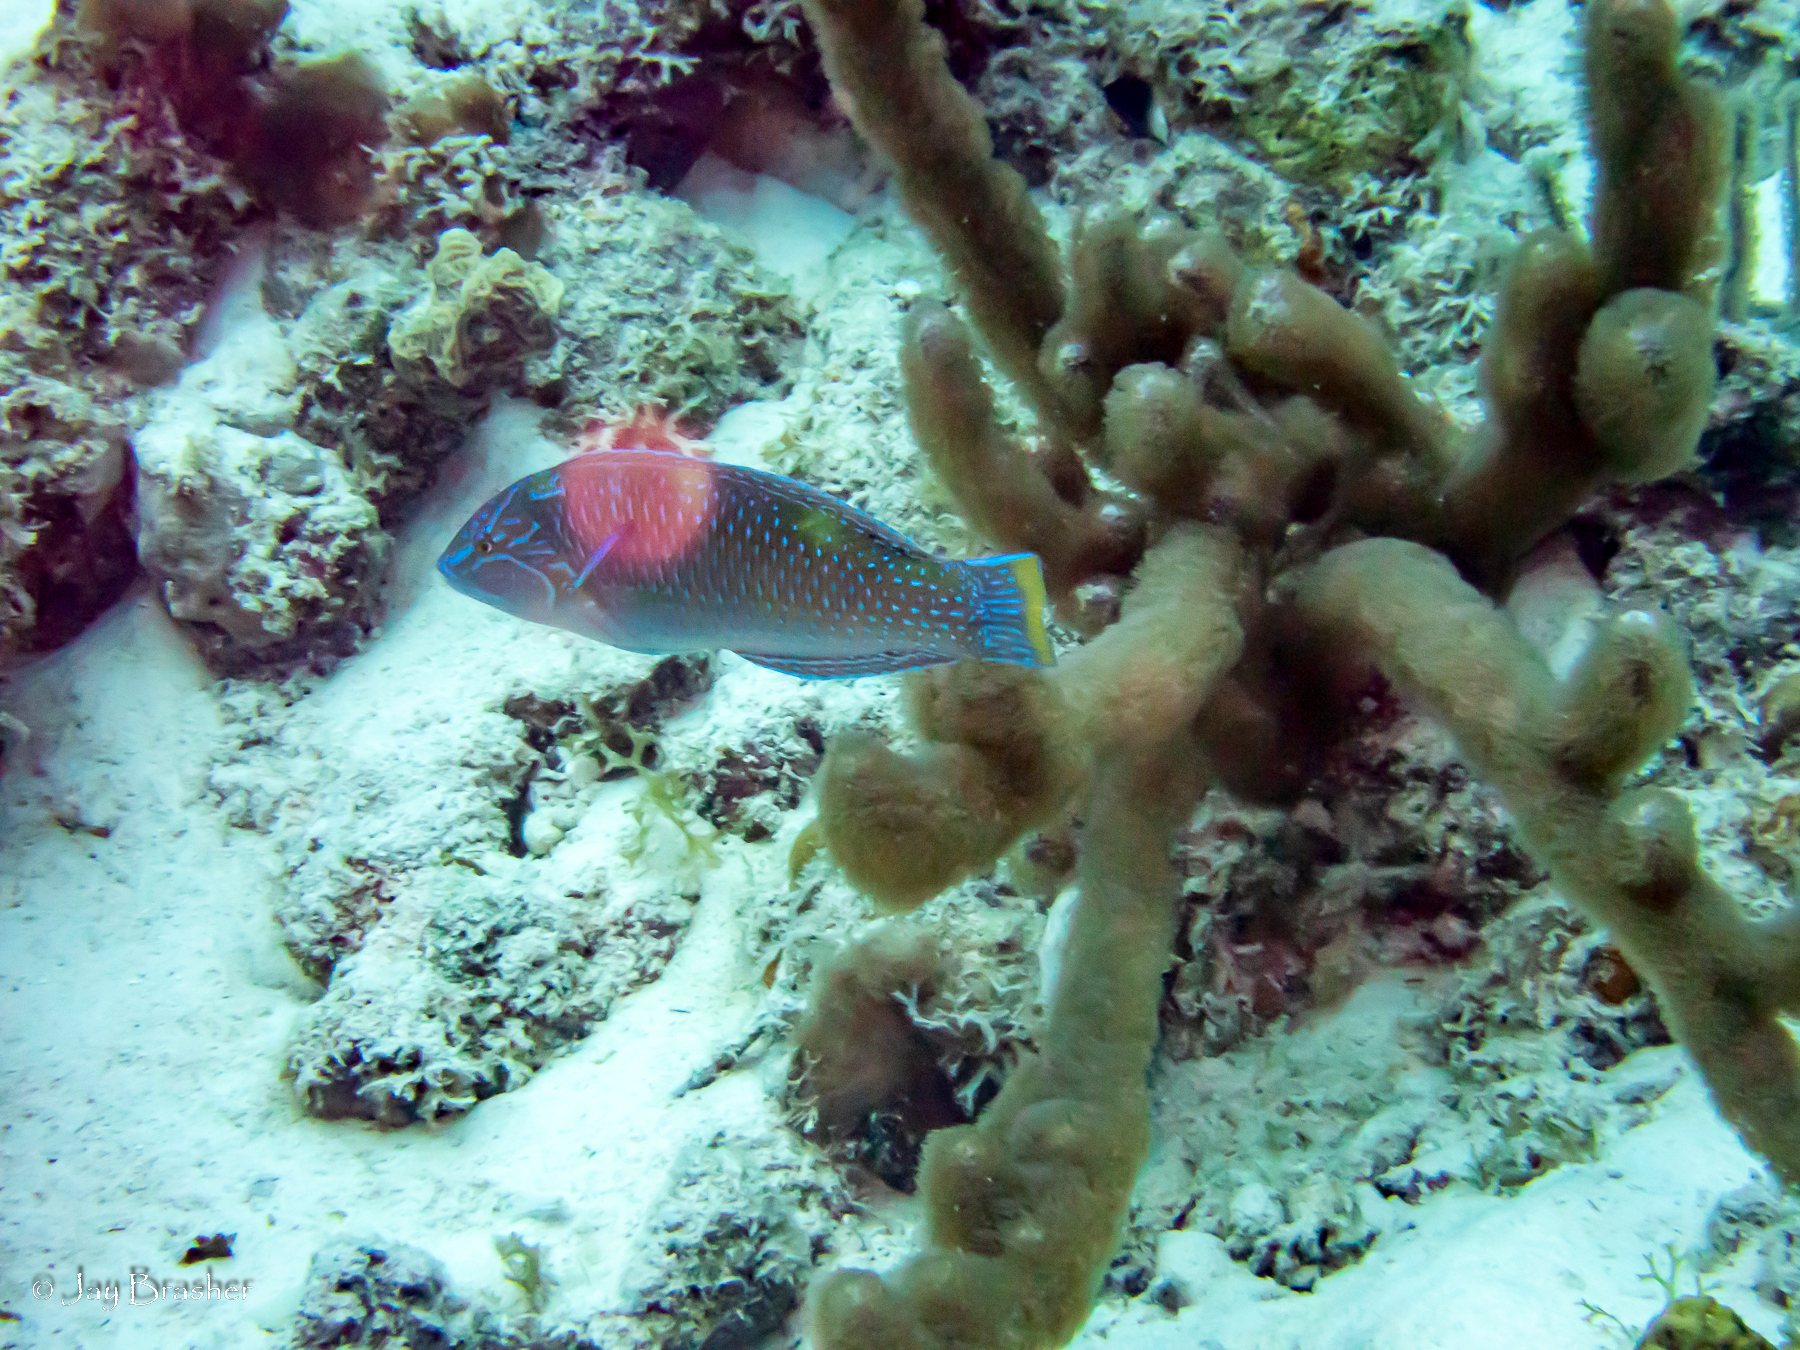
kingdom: Animalia
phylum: Chordata
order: Perciformes
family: Labridae
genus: Halichoeres
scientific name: Halichoeres radiatus
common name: Puddingwife
